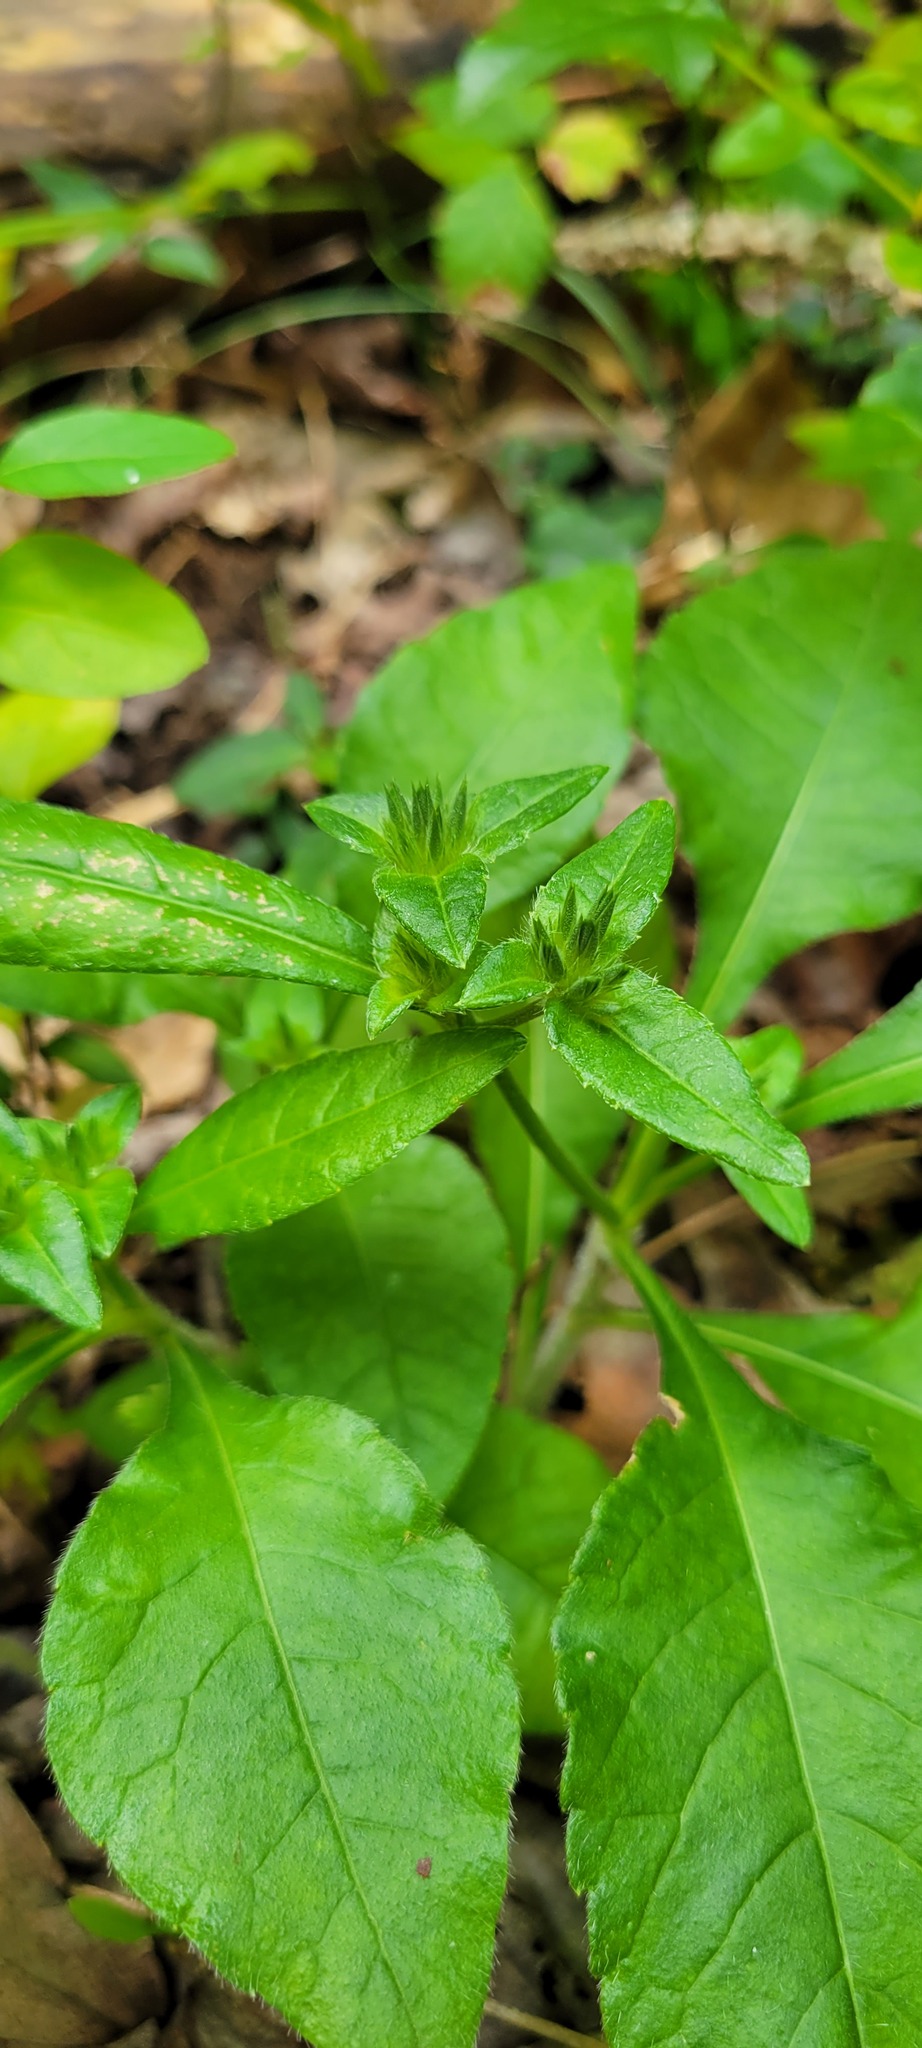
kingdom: Plantae
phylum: Tracheophyta
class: Magnoliopsida
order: Asterales
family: Asteraceae
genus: Elephantopus
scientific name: Elephantopus carolinianus
